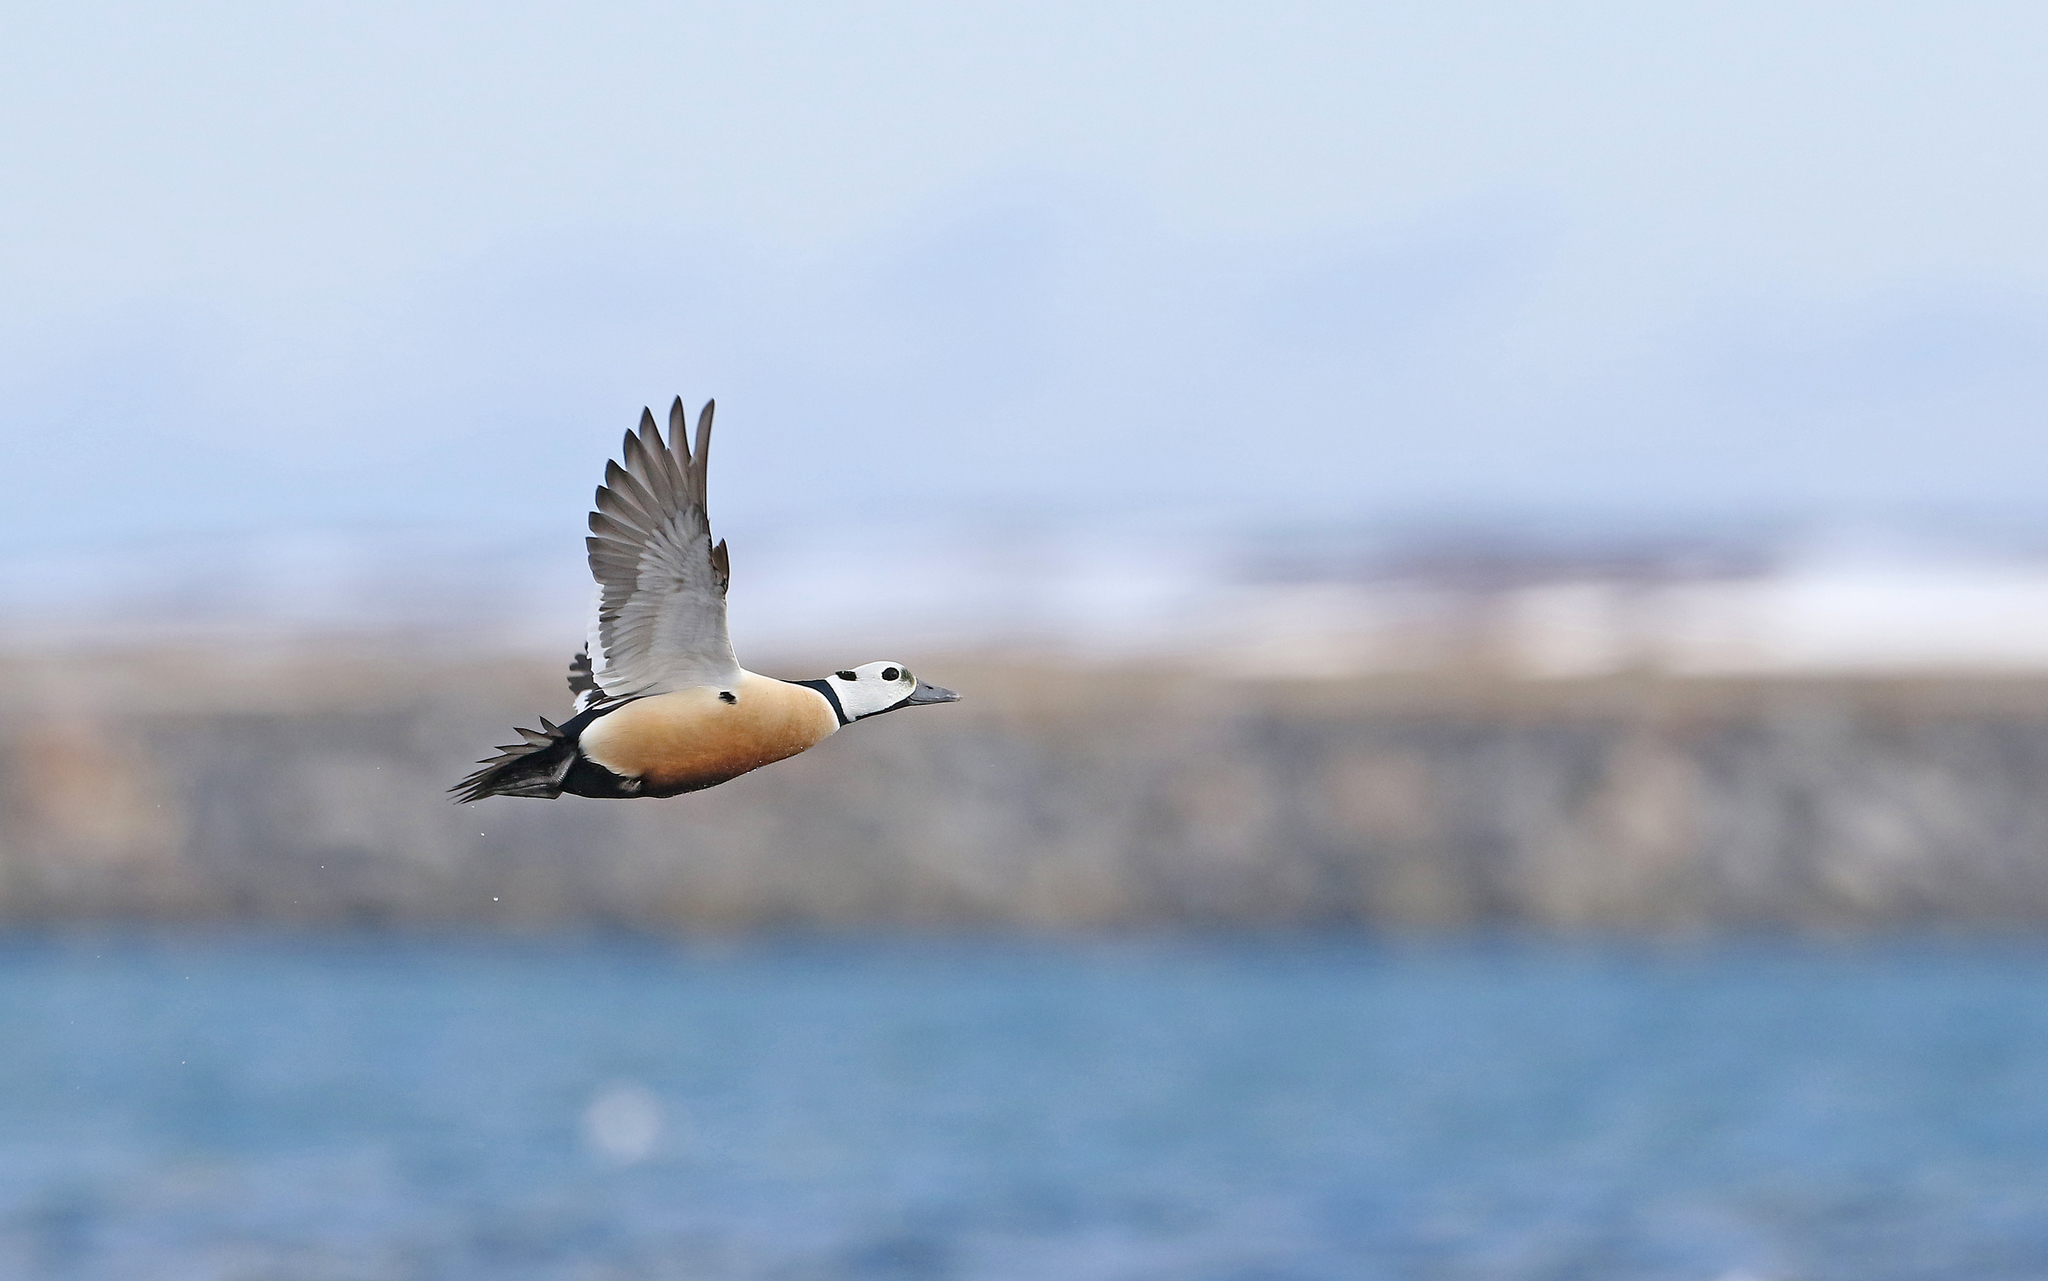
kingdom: Animalia
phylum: Chordata
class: Aves
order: Anseriformes
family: Anatidae
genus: Polysticta
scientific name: Polysticta stelleri
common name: Steller's eider
